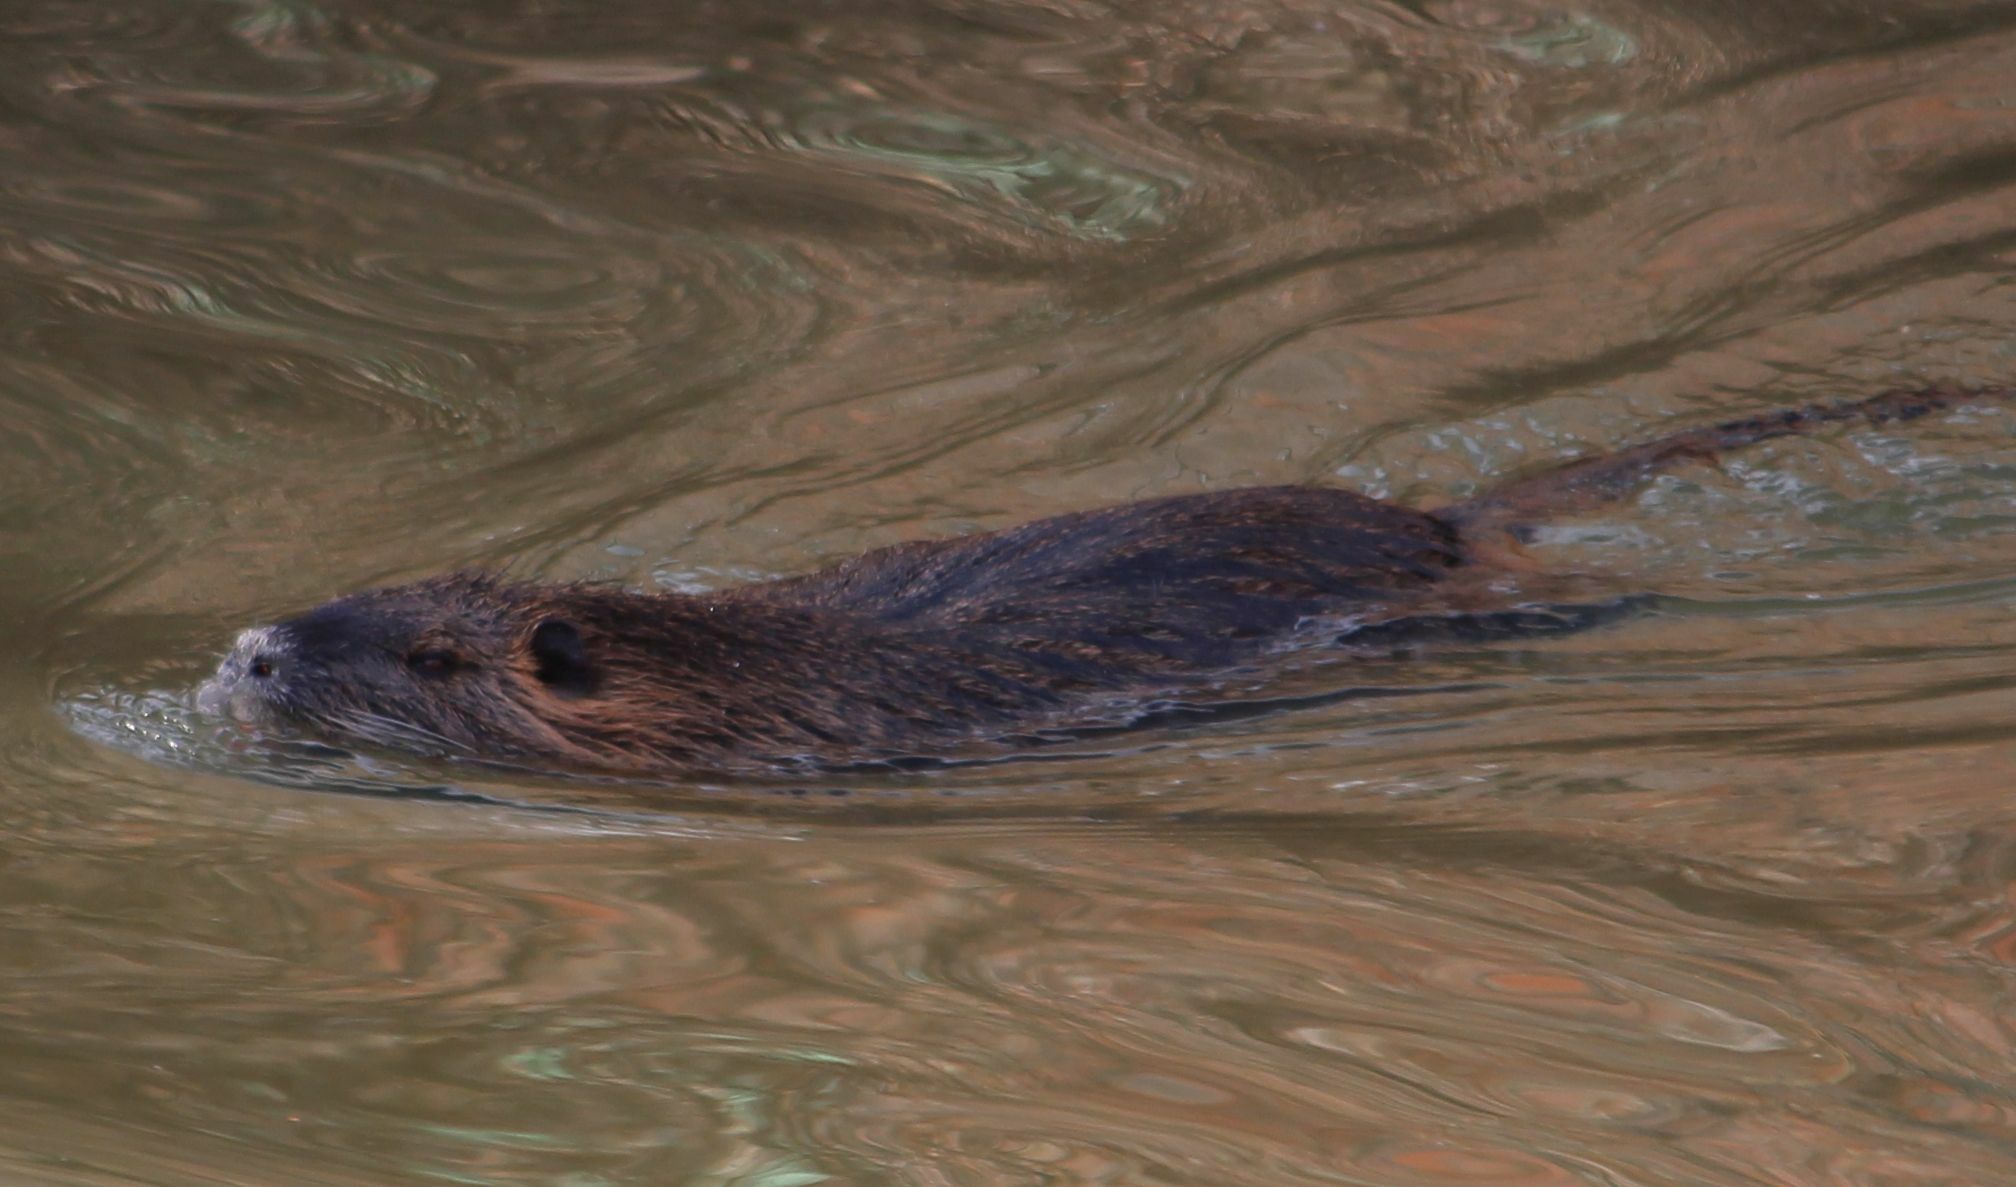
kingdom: Animalia
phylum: Chordata
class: Mammalia
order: Rodentia
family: Myocastoridae
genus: Myocastor
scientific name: Myocastor coypus
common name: Coypu
